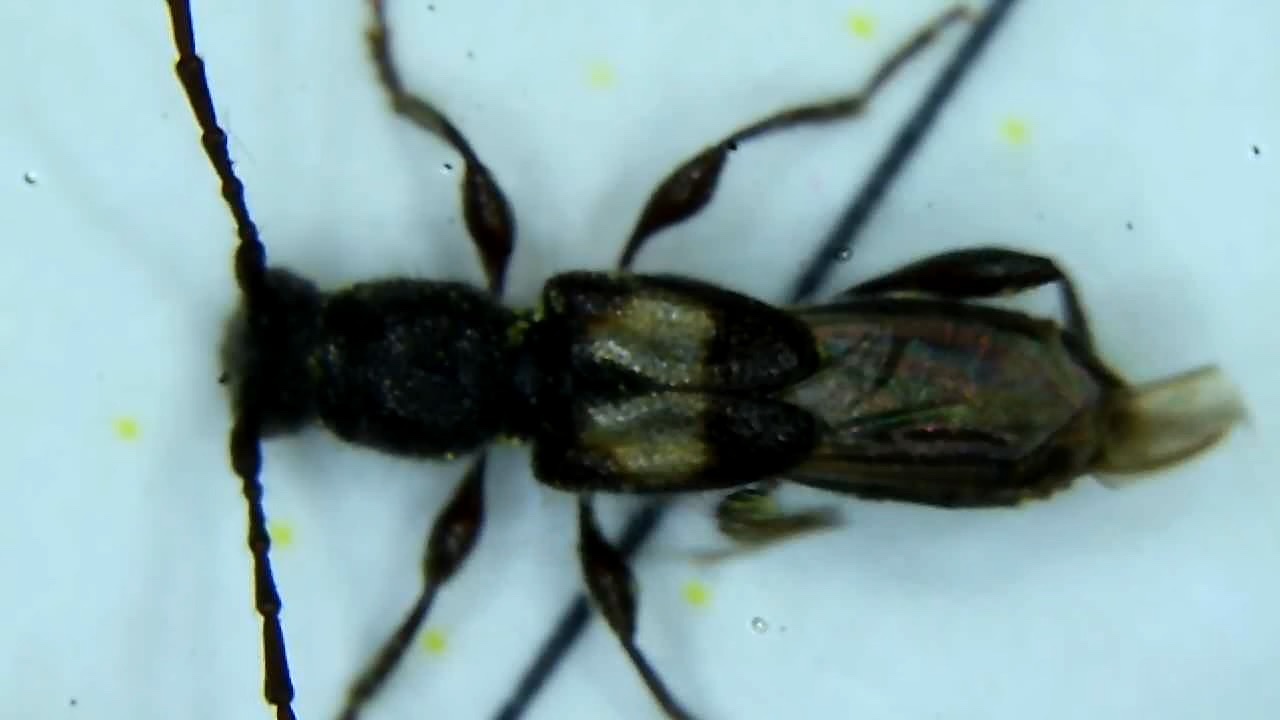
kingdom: Animalia
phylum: Arthropoda
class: Insecta
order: Coleoptera
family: Cerambycidae
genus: Molorchus
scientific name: Molorchus bimaculatus
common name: Bimaculate longhorn beetle
